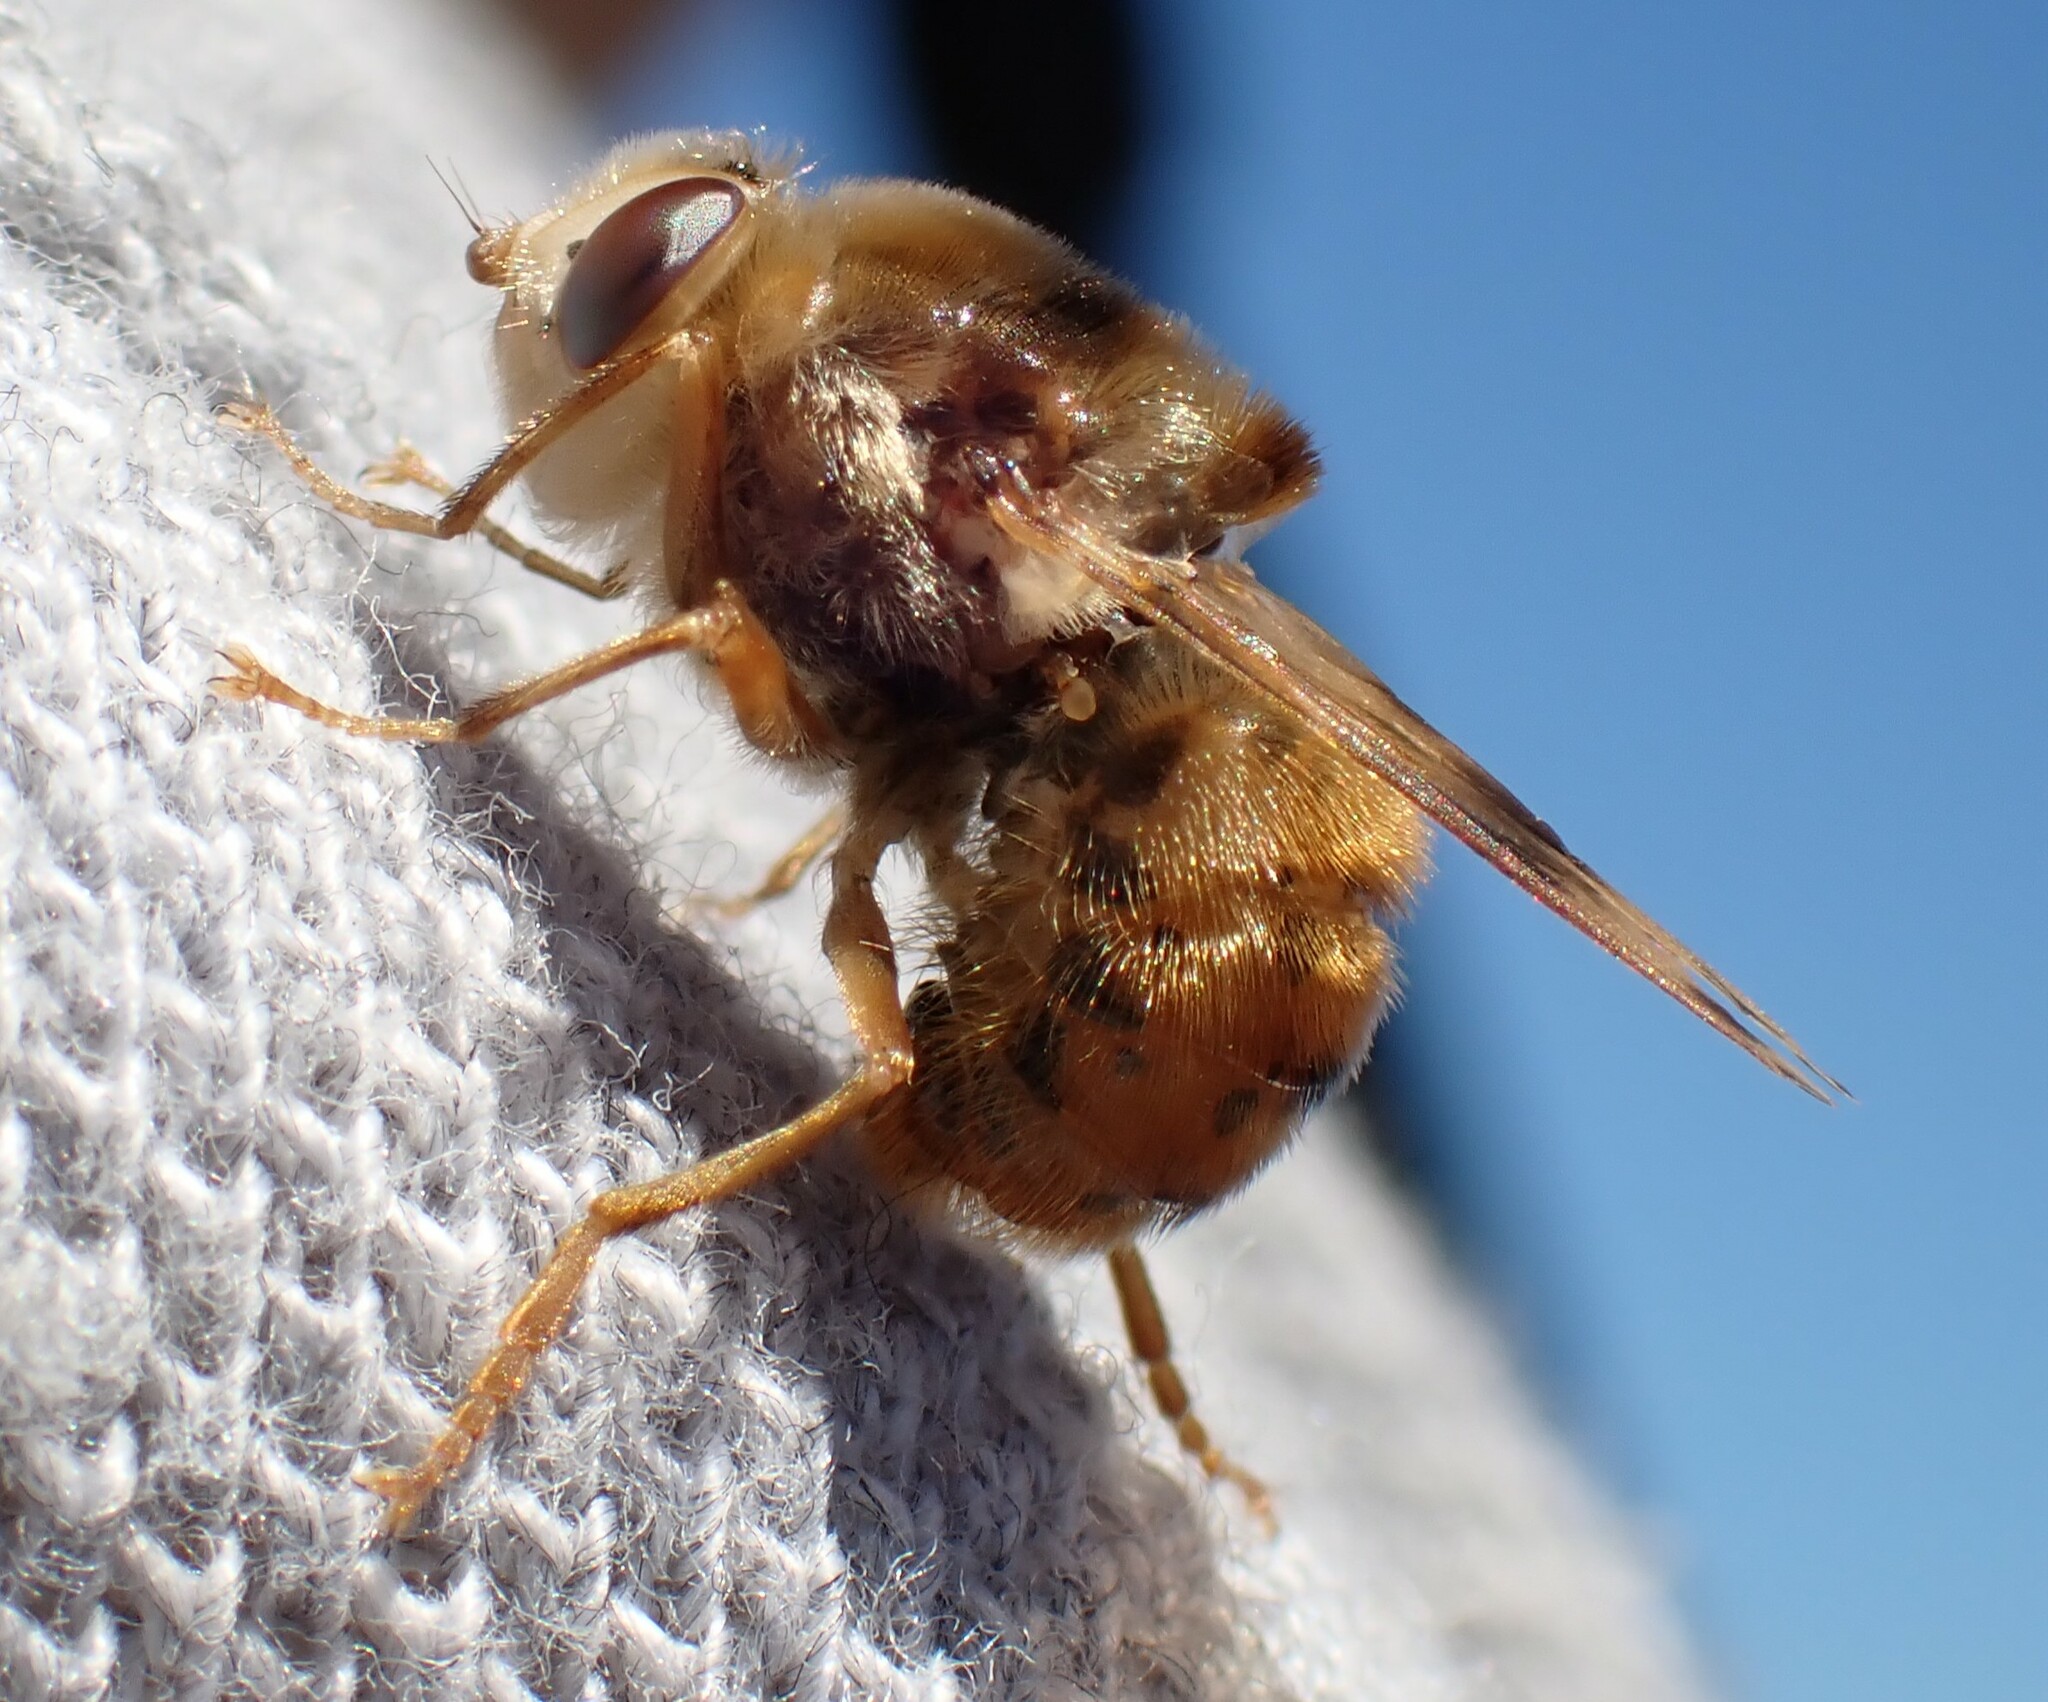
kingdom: Animalia
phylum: Arthropoda
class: Insecta
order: Diptera
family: Oestridae
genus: Gasterophilus
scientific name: Gasterophilus intestinalis
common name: Horse botfly
